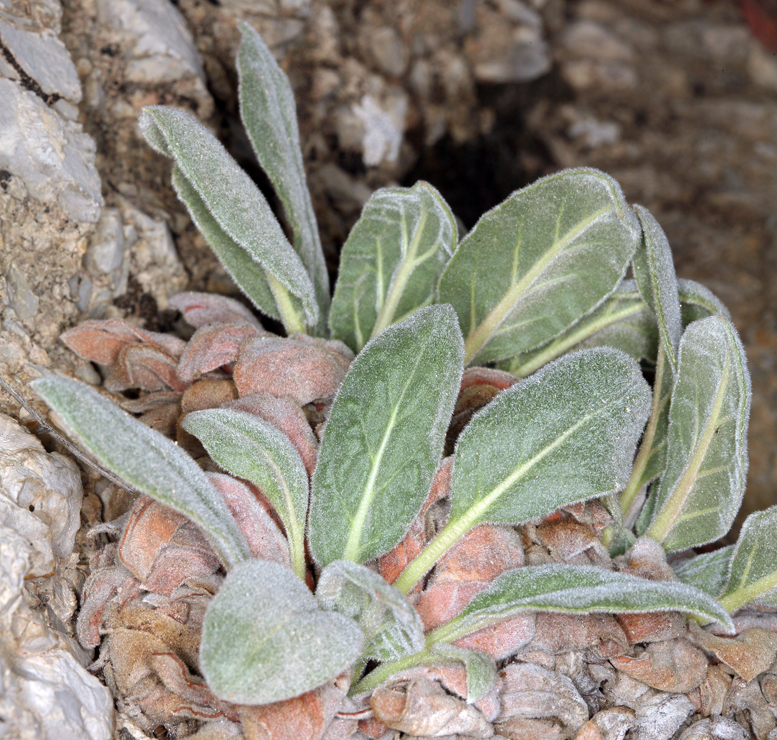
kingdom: Plantae
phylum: Tracheophyta
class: Magnoliopsida
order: Caryophyllales
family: Polygonaceae
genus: Eriogonum
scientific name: Eriogonum intrafractum
